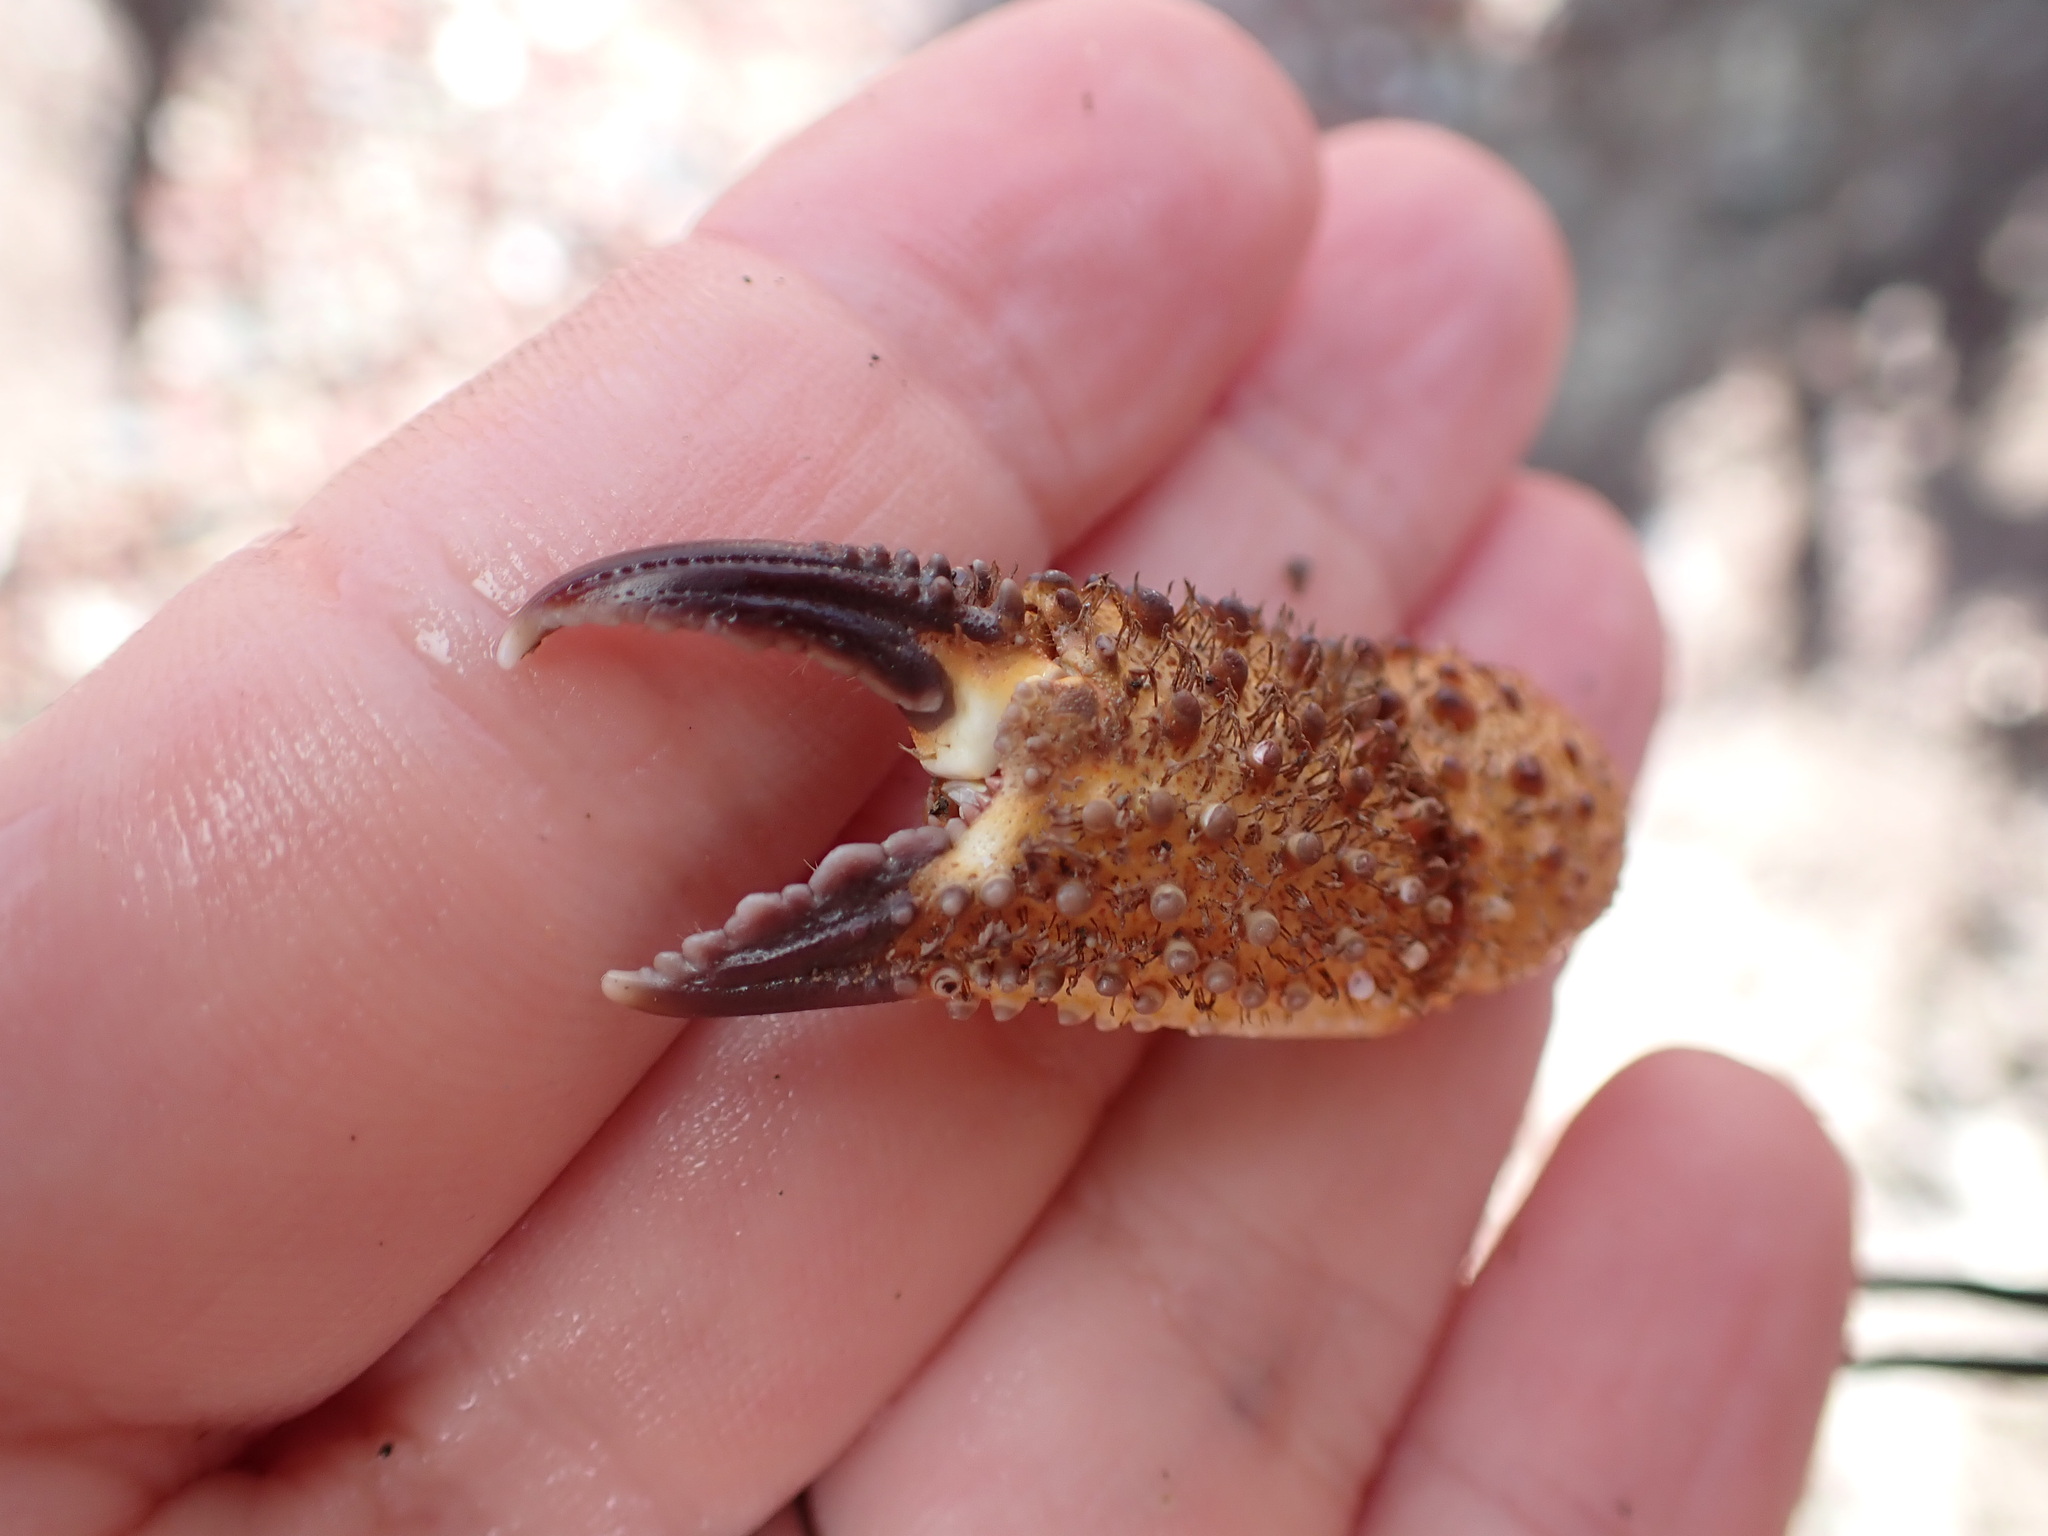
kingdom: Animalia
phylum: Arthropoda
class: Malacostraca
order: Decapoda
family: Eriphiidae
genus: Eriphia
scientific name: Eriphia verrucosa
